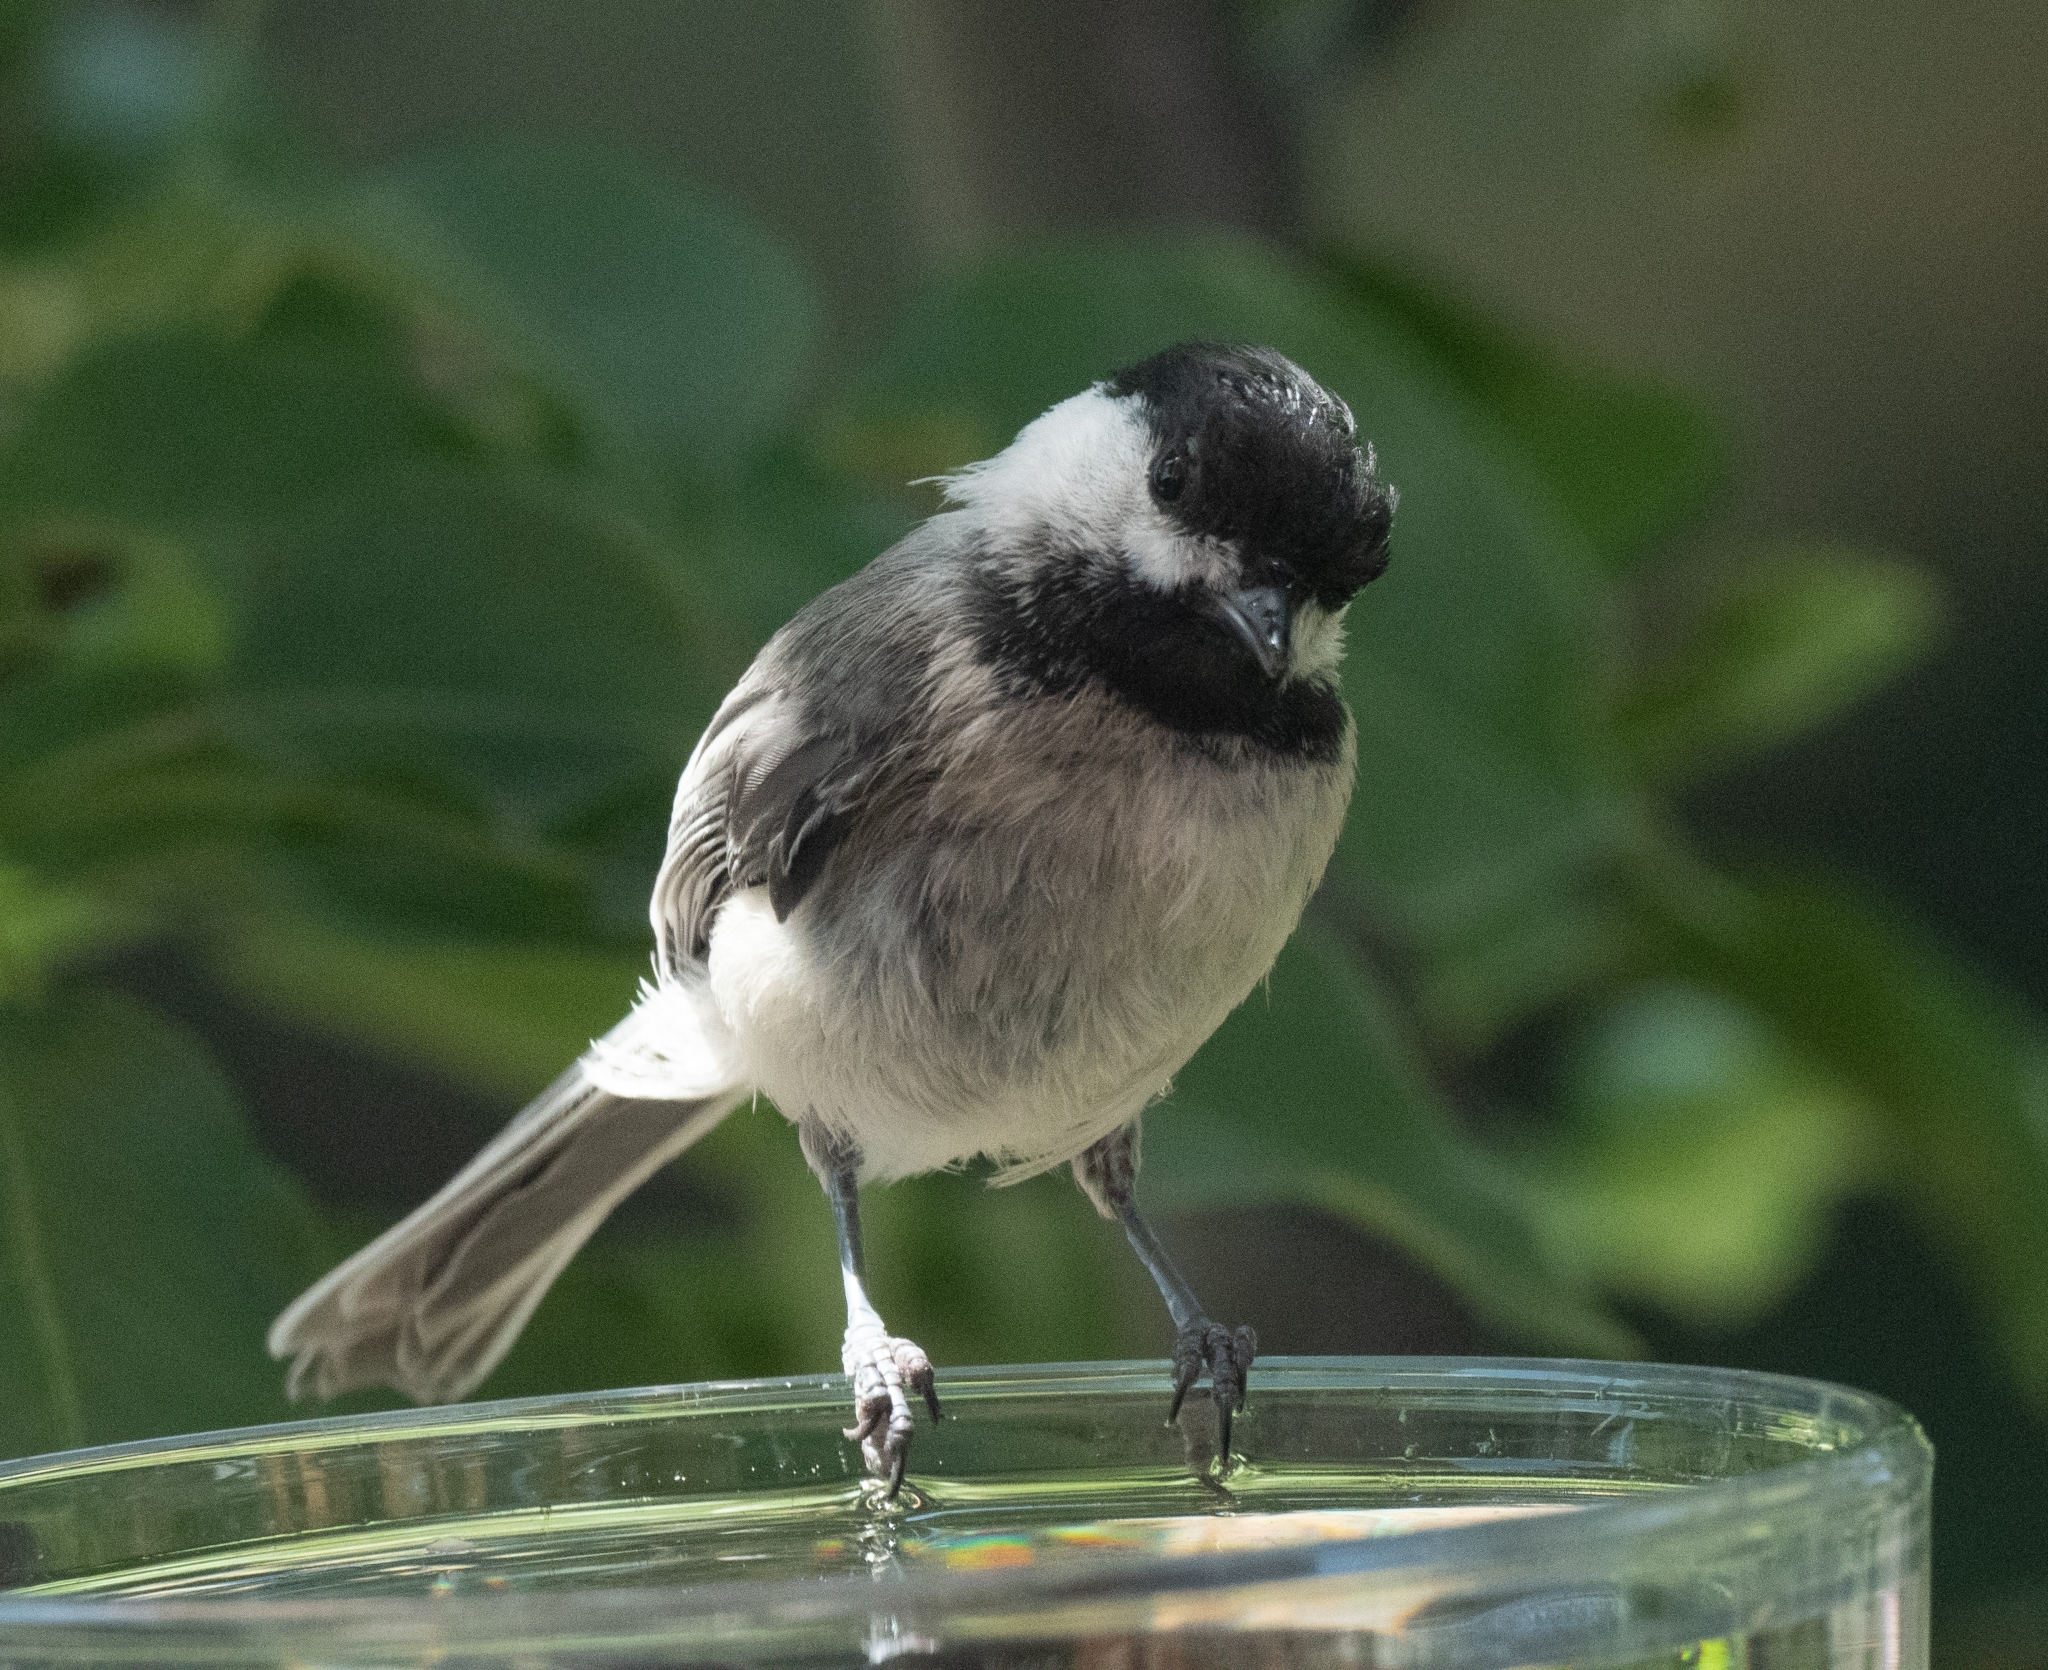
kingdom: Animalia
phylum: Chordata
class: Aves
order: Passeriformes
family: Paridae
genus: Poecile
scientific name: Poecile atricapillus
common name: Black-capped chickadee
